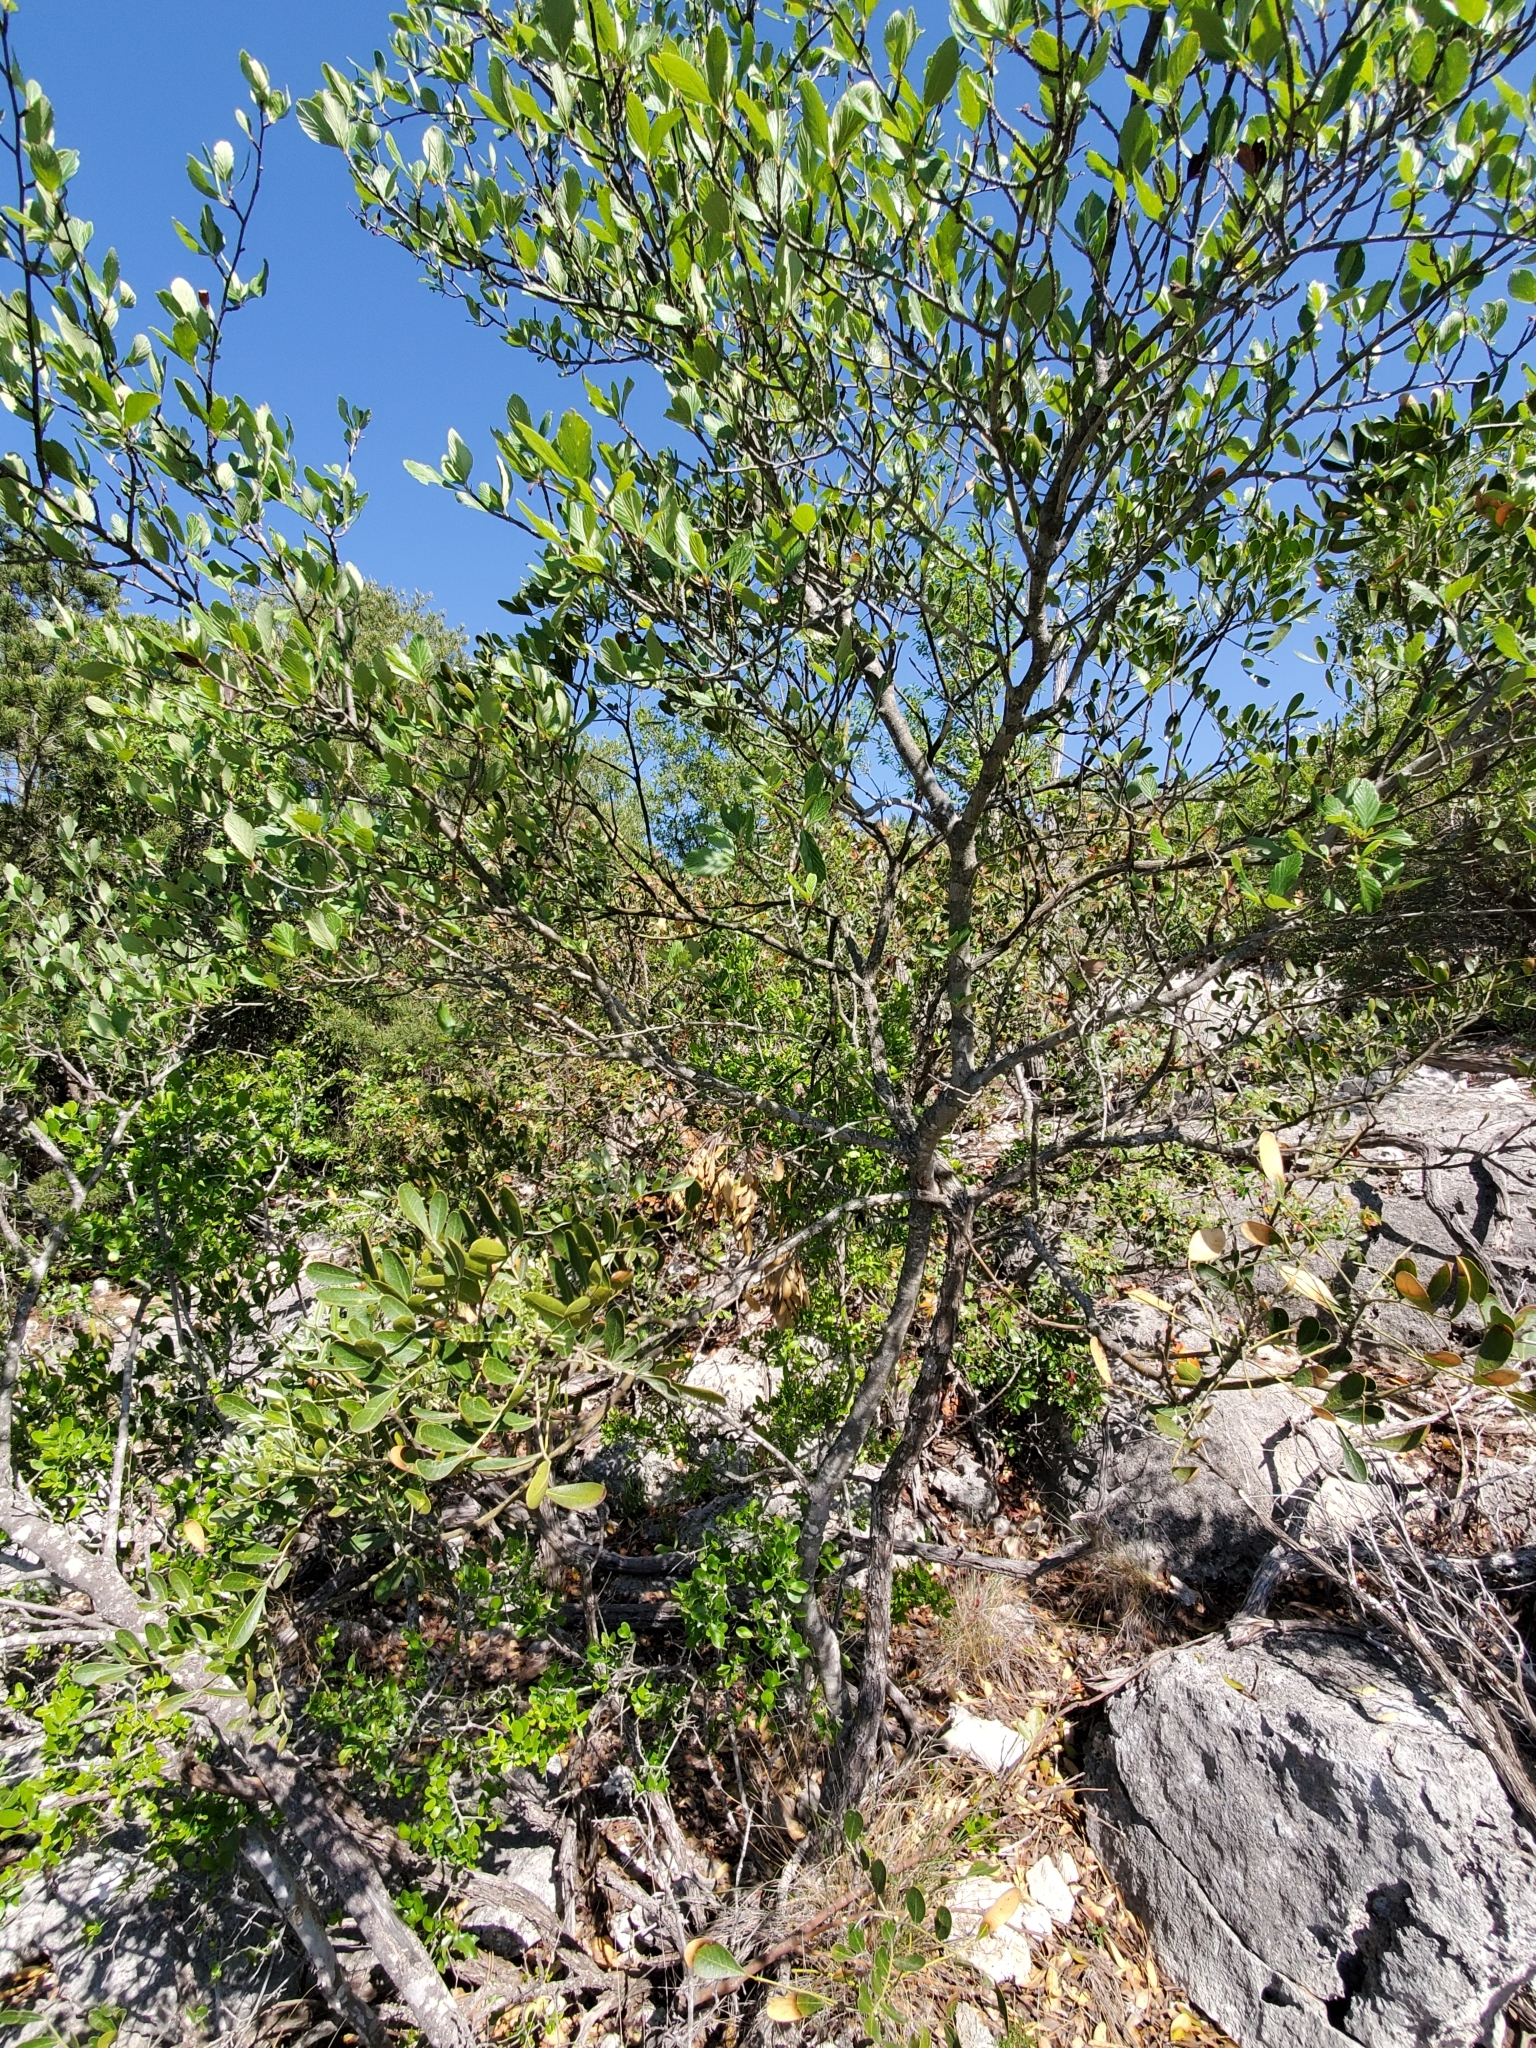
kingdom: Plantae
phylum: Tracheophyta
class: Magnoliopsida
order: Rosales
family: Rosaceae
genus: Cercocarpus
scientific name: Cercocarpus montanus
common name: Alder-leaf cercocarpus
